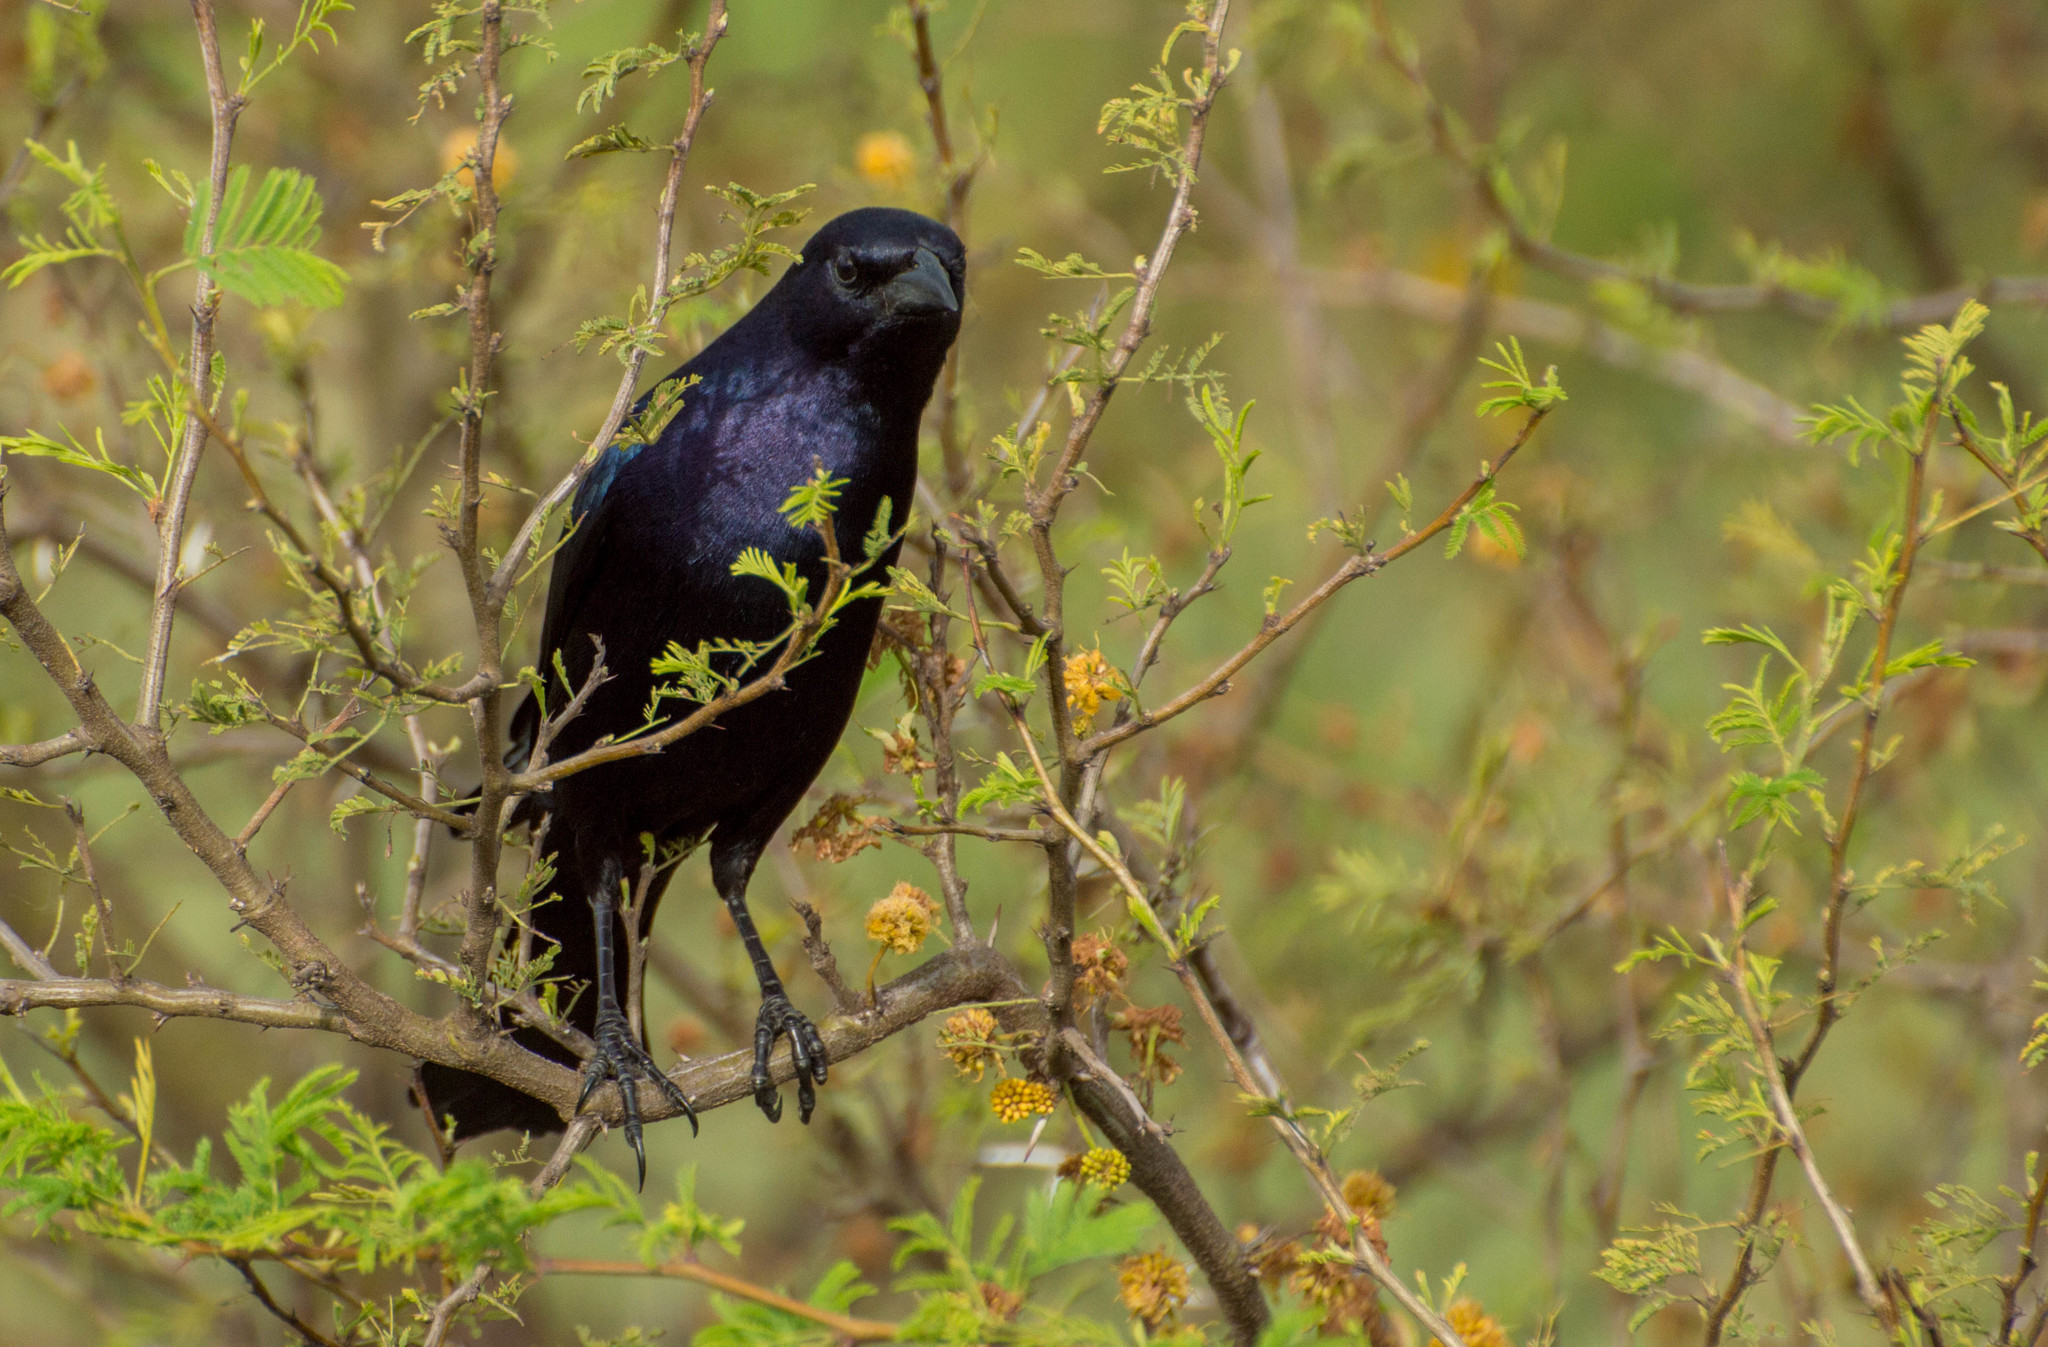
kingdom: Animalia
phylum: Chordata
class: Aves
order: Passeriformes
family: Icteridae
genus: Molothrus
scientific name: Molothrus bonariensis
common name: Shiny cowbird
